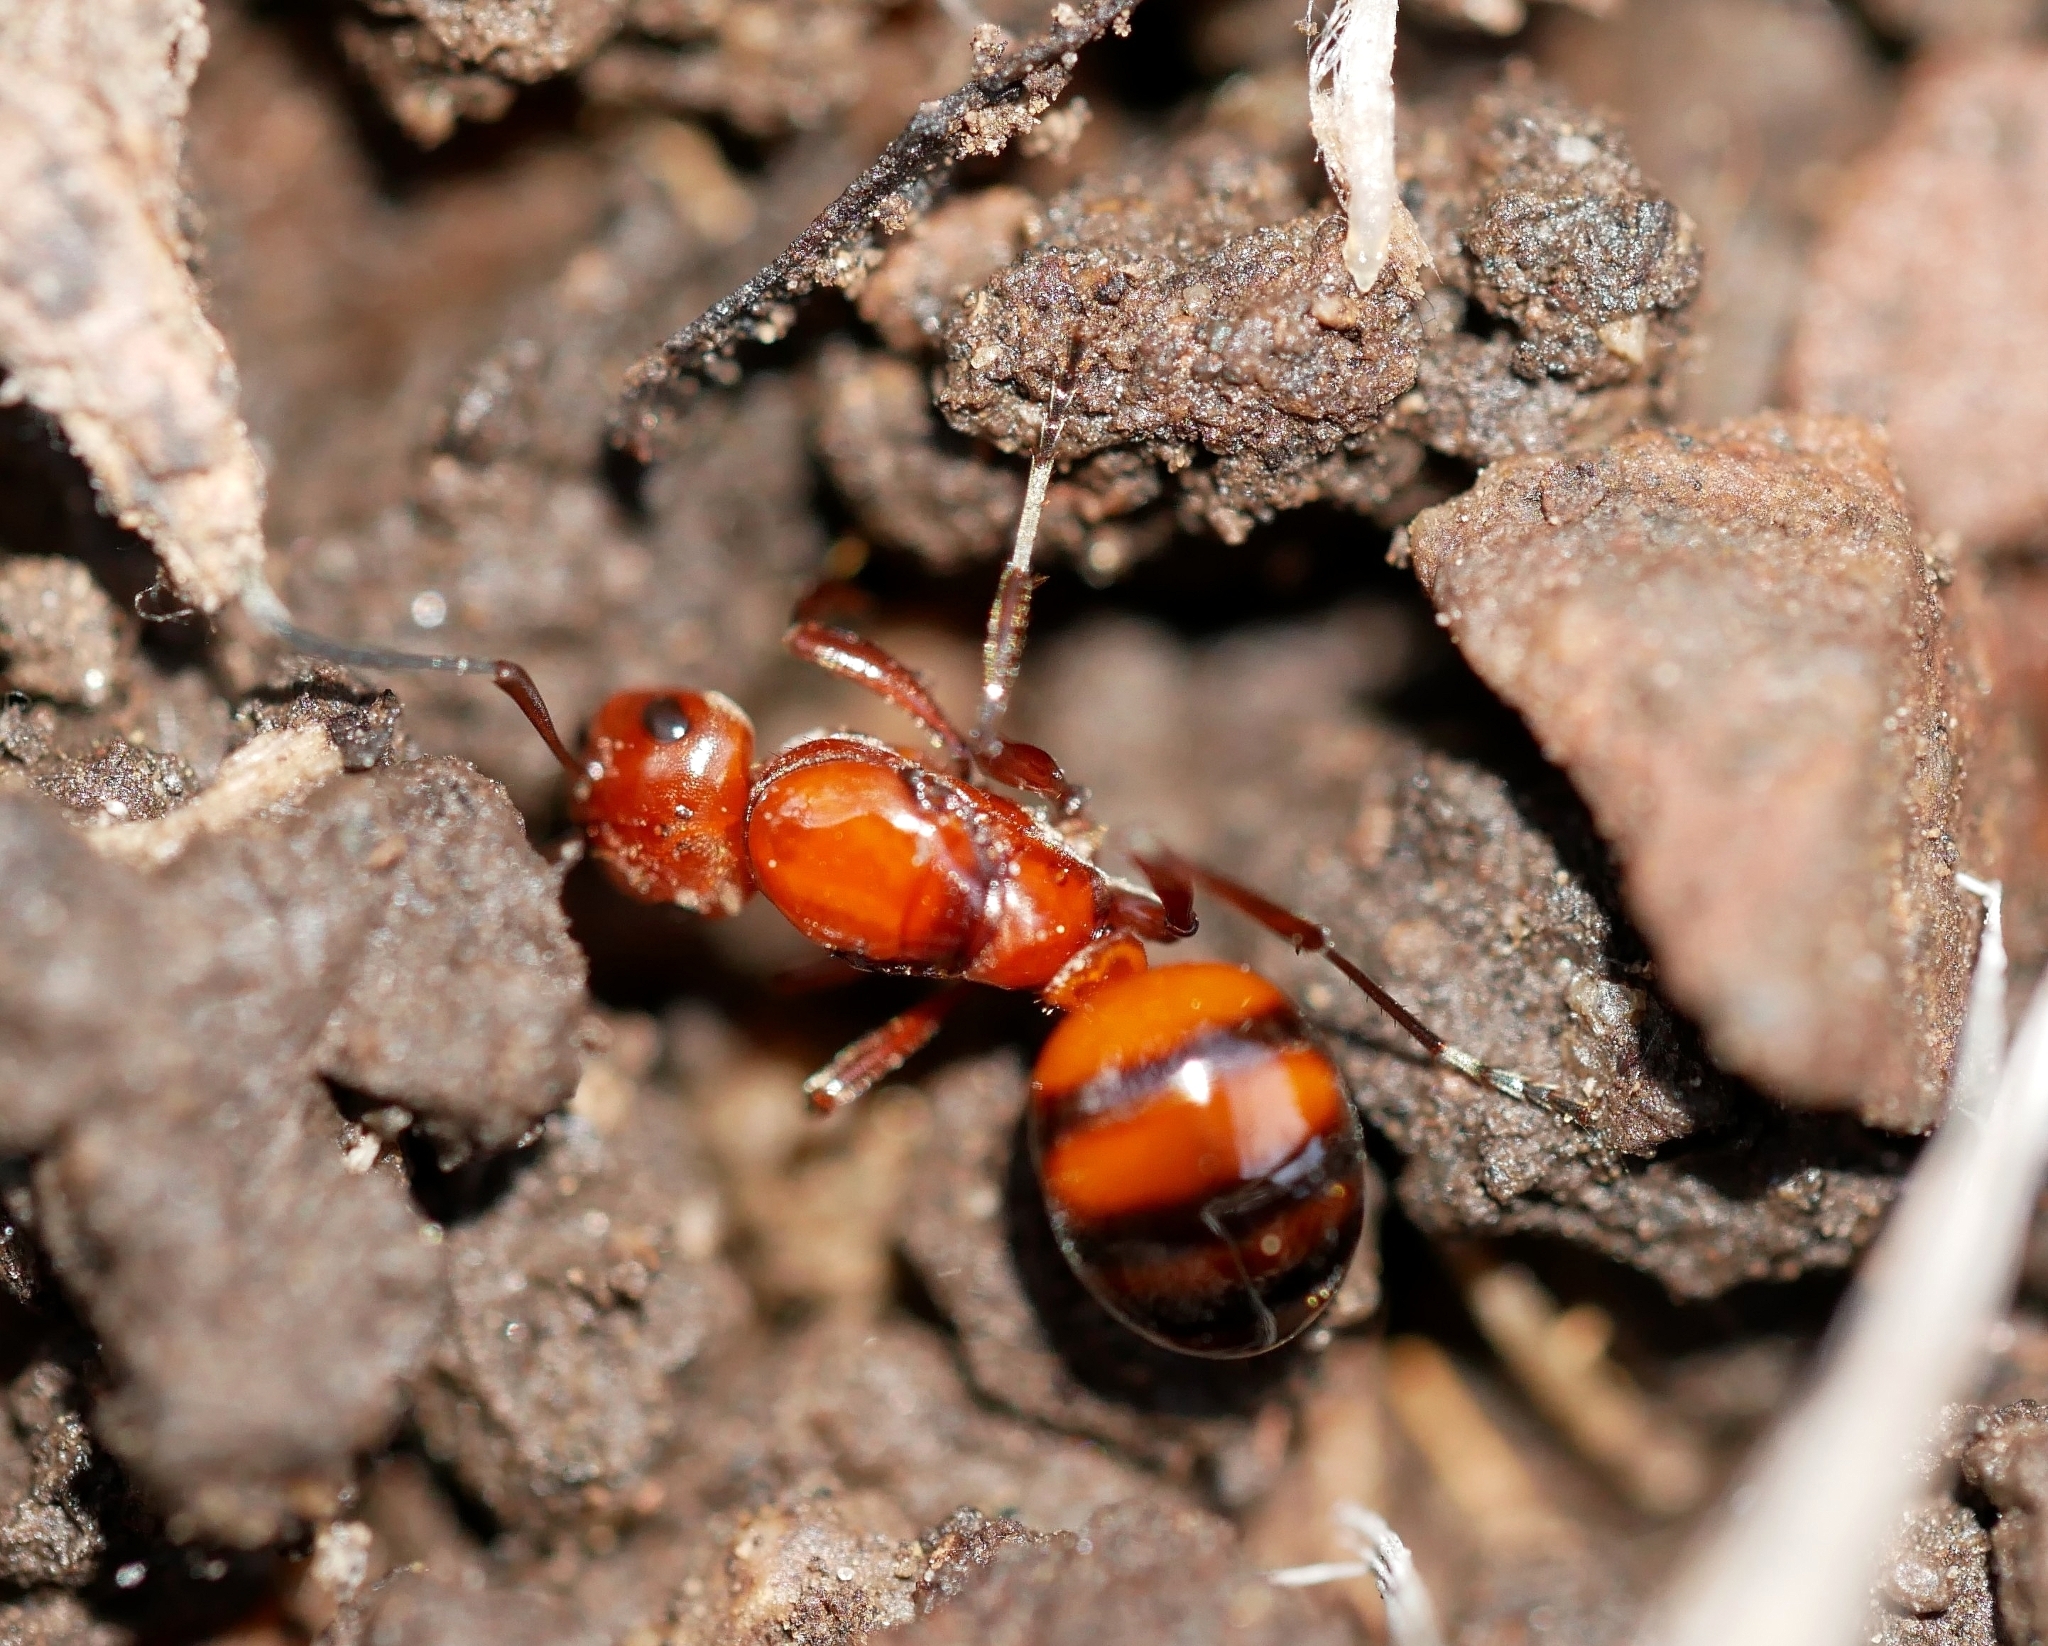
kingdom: Animalia
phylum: Arthropoda
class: Insecta
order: Hymenoptera
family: Formicidae
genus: Formica
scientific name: Formica dakotensis
